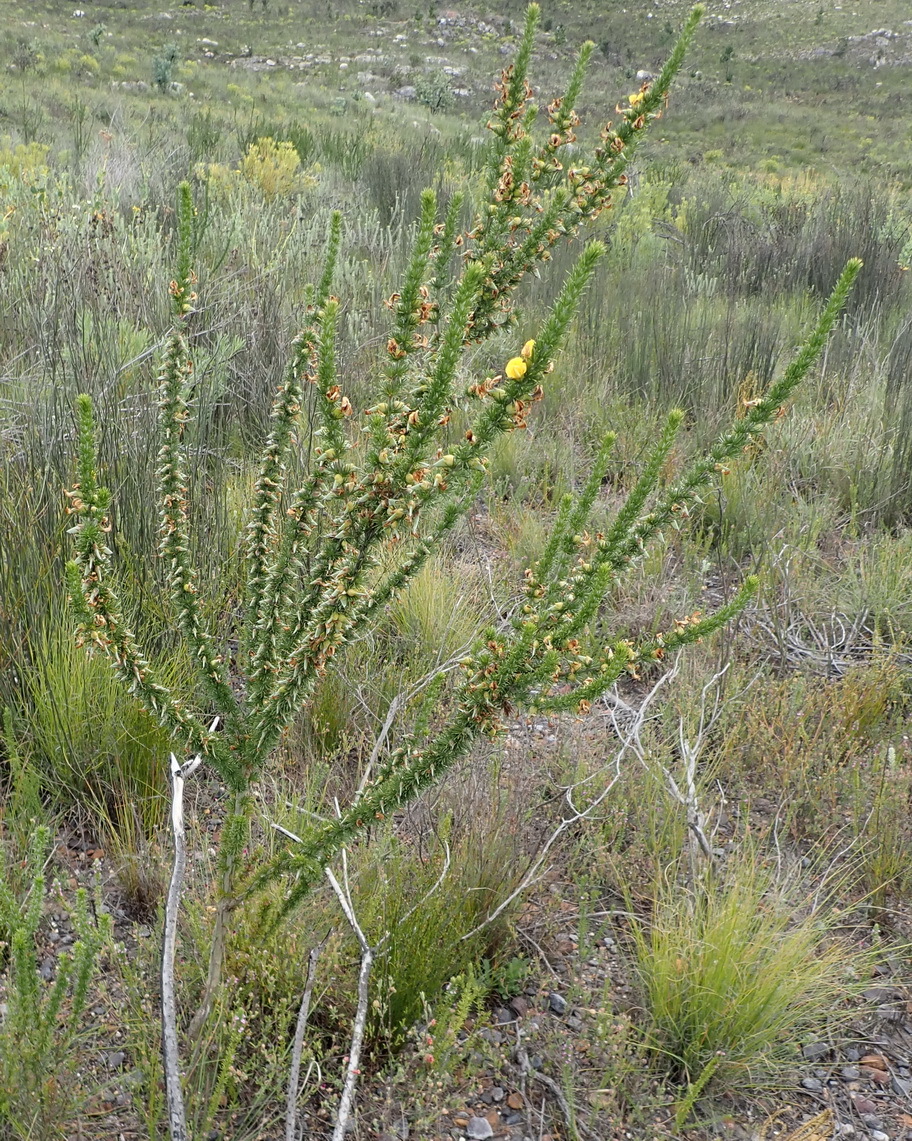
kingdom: Plantae
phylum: Tracheophyta
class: Magnoliopsida
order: Fabales
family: Fabaceae
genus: Aspalathus
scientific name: Aspalathus sceptrumaureum
